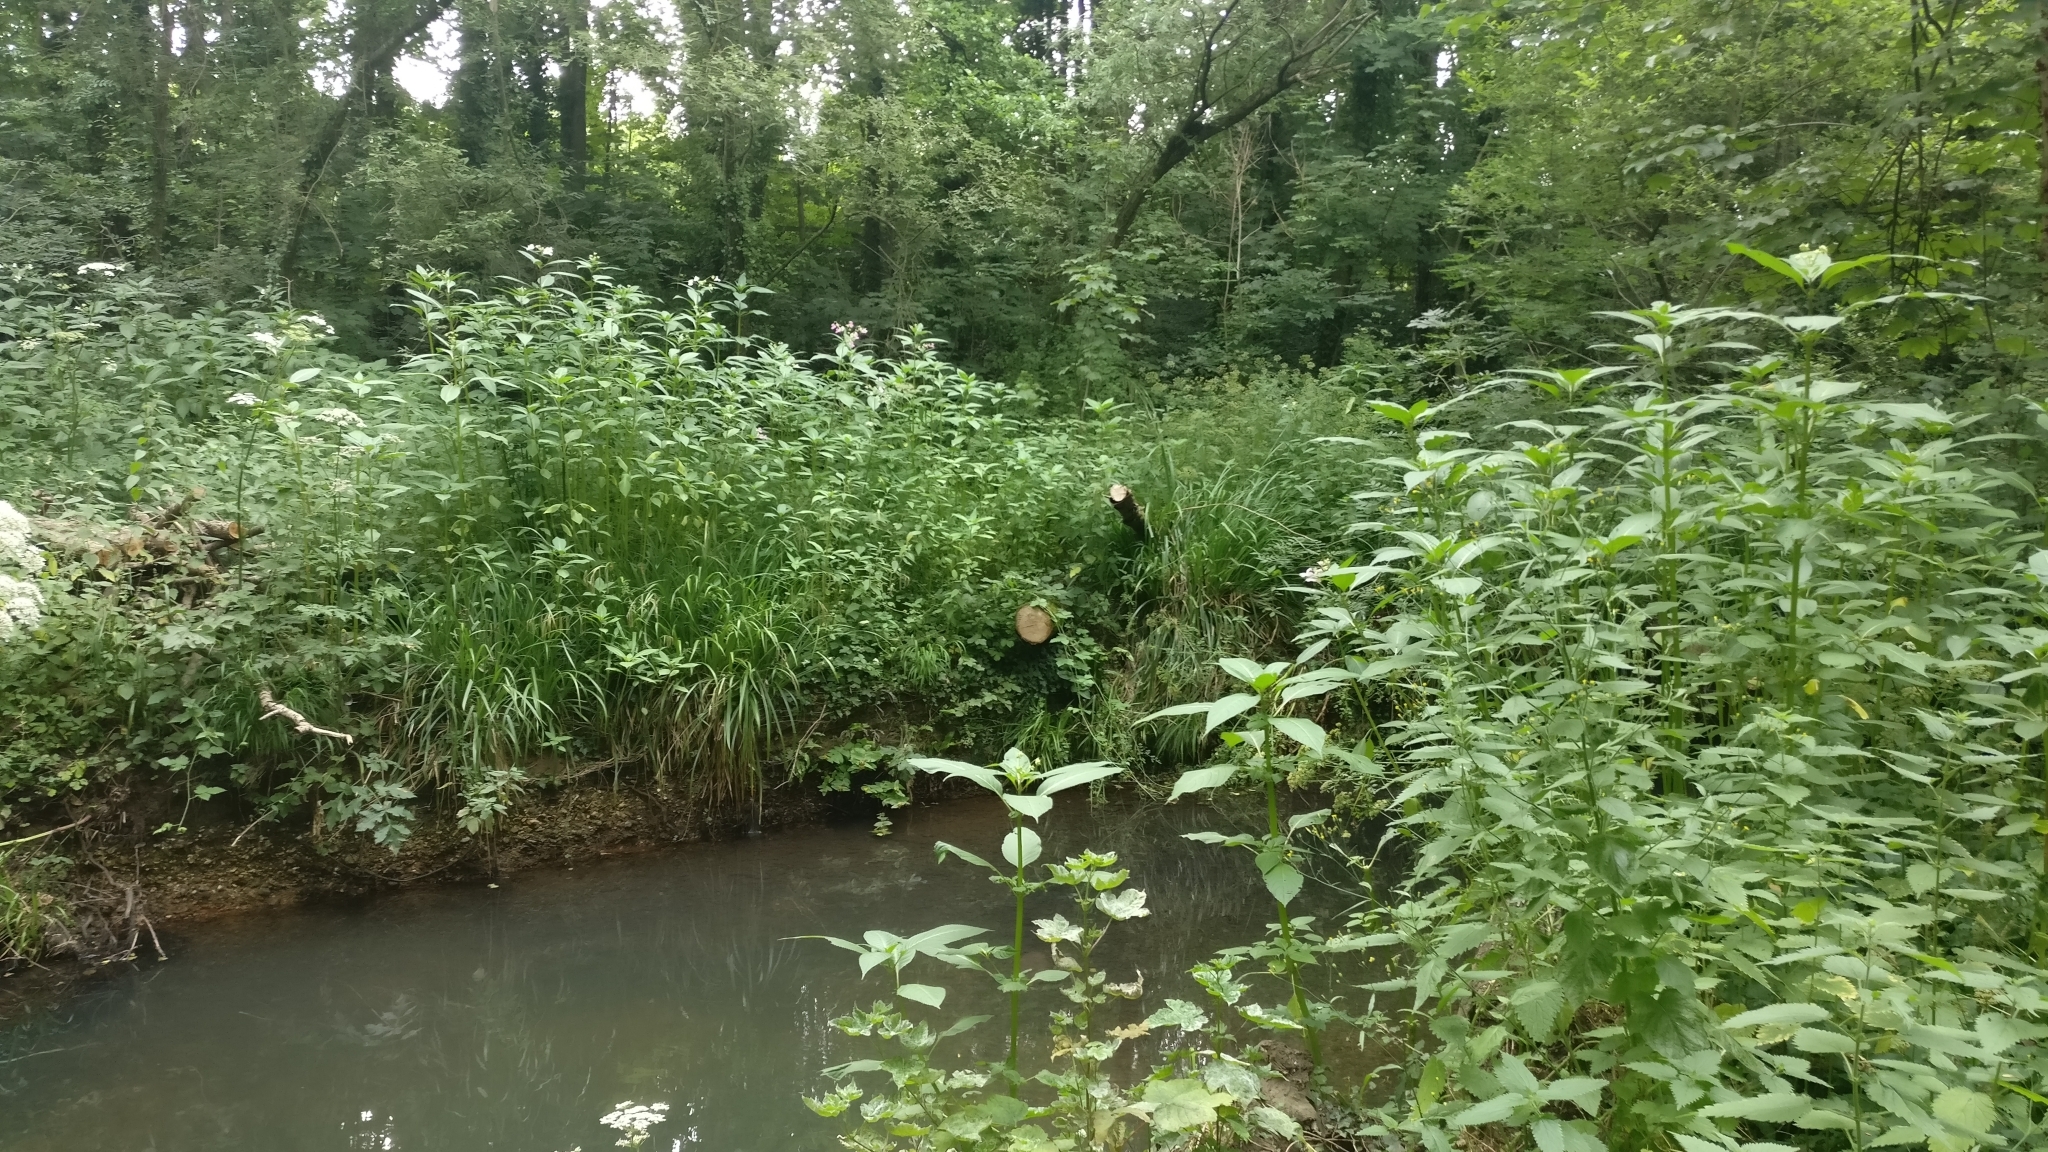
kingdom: Plantae
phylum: Tracheophyta
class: Magnoliopsida
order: Ericales
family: Balsaminaceae
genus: Impatiens
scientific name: Impatiens glandulifera
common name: Himalayan balsam
